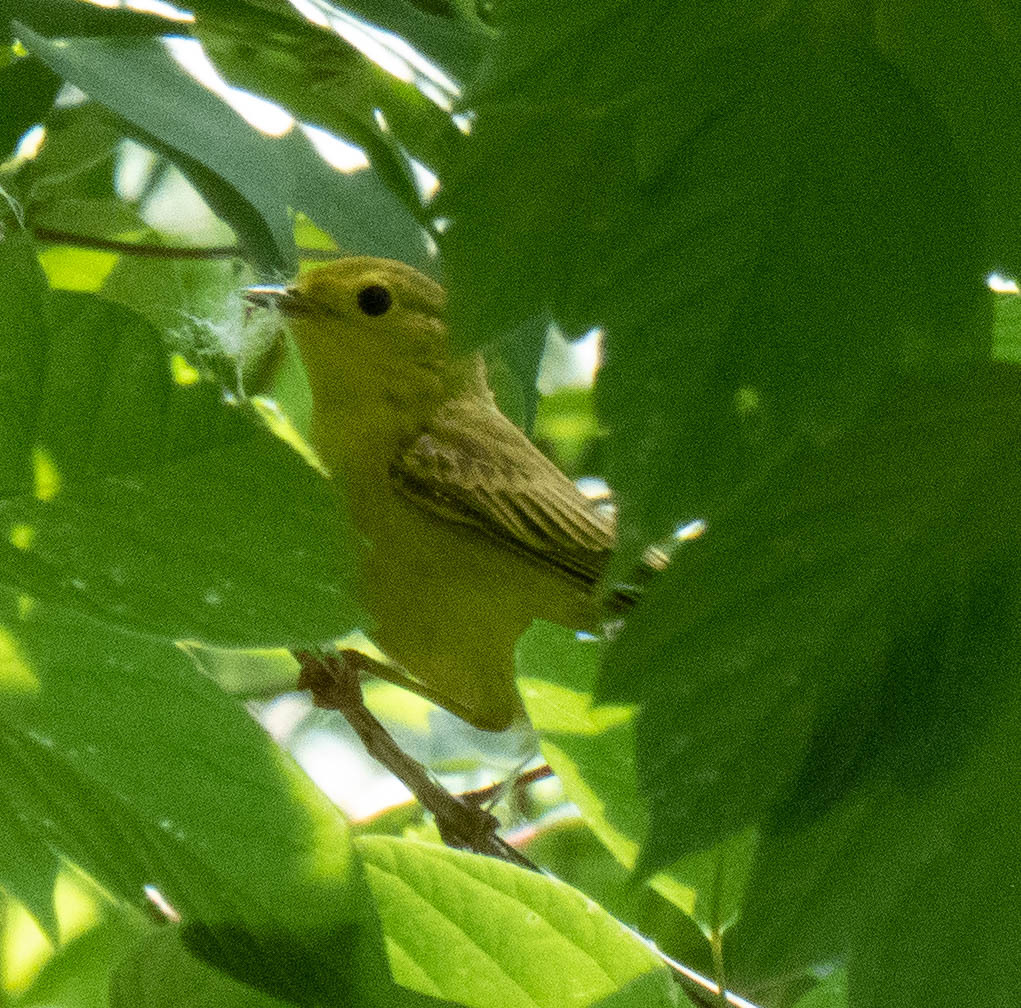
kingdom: Animalia
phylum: Chordata
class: Aves
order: Passeriformes
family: Parulidae
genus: Setophaga
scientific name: Setophaga petechia
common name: Yellow warbler
